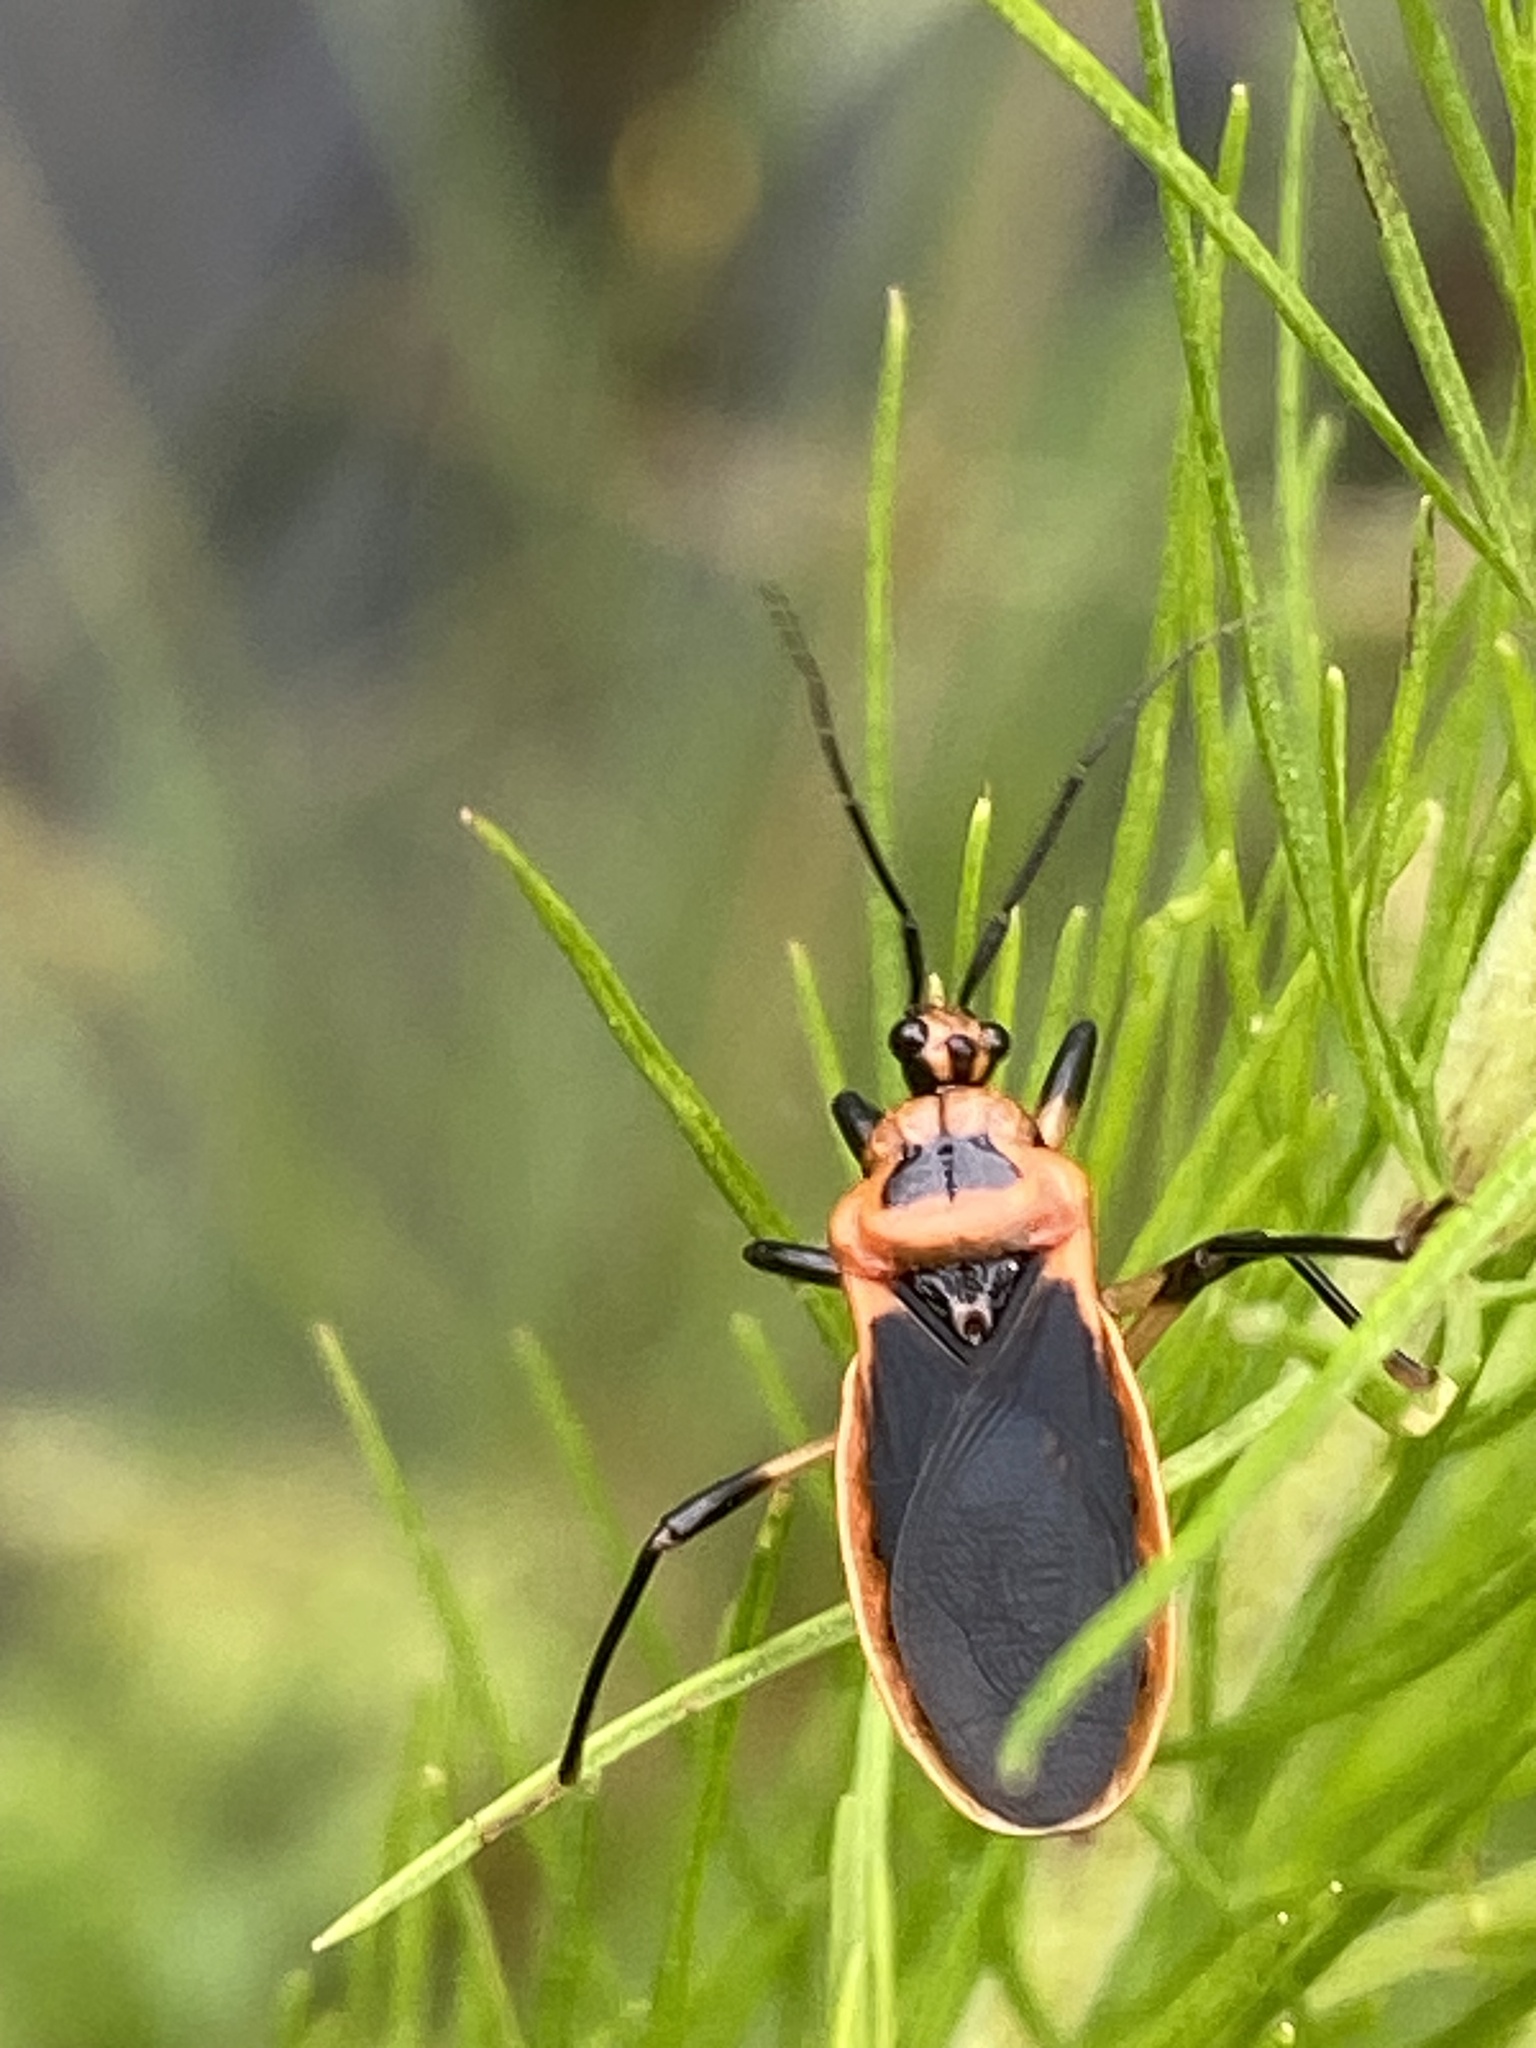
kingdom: Animalia
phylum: Arthropoda
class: Insecta
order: Hemiptera
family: Reduviidae
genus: Rhiginia
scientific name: Rhiginia cruciata
